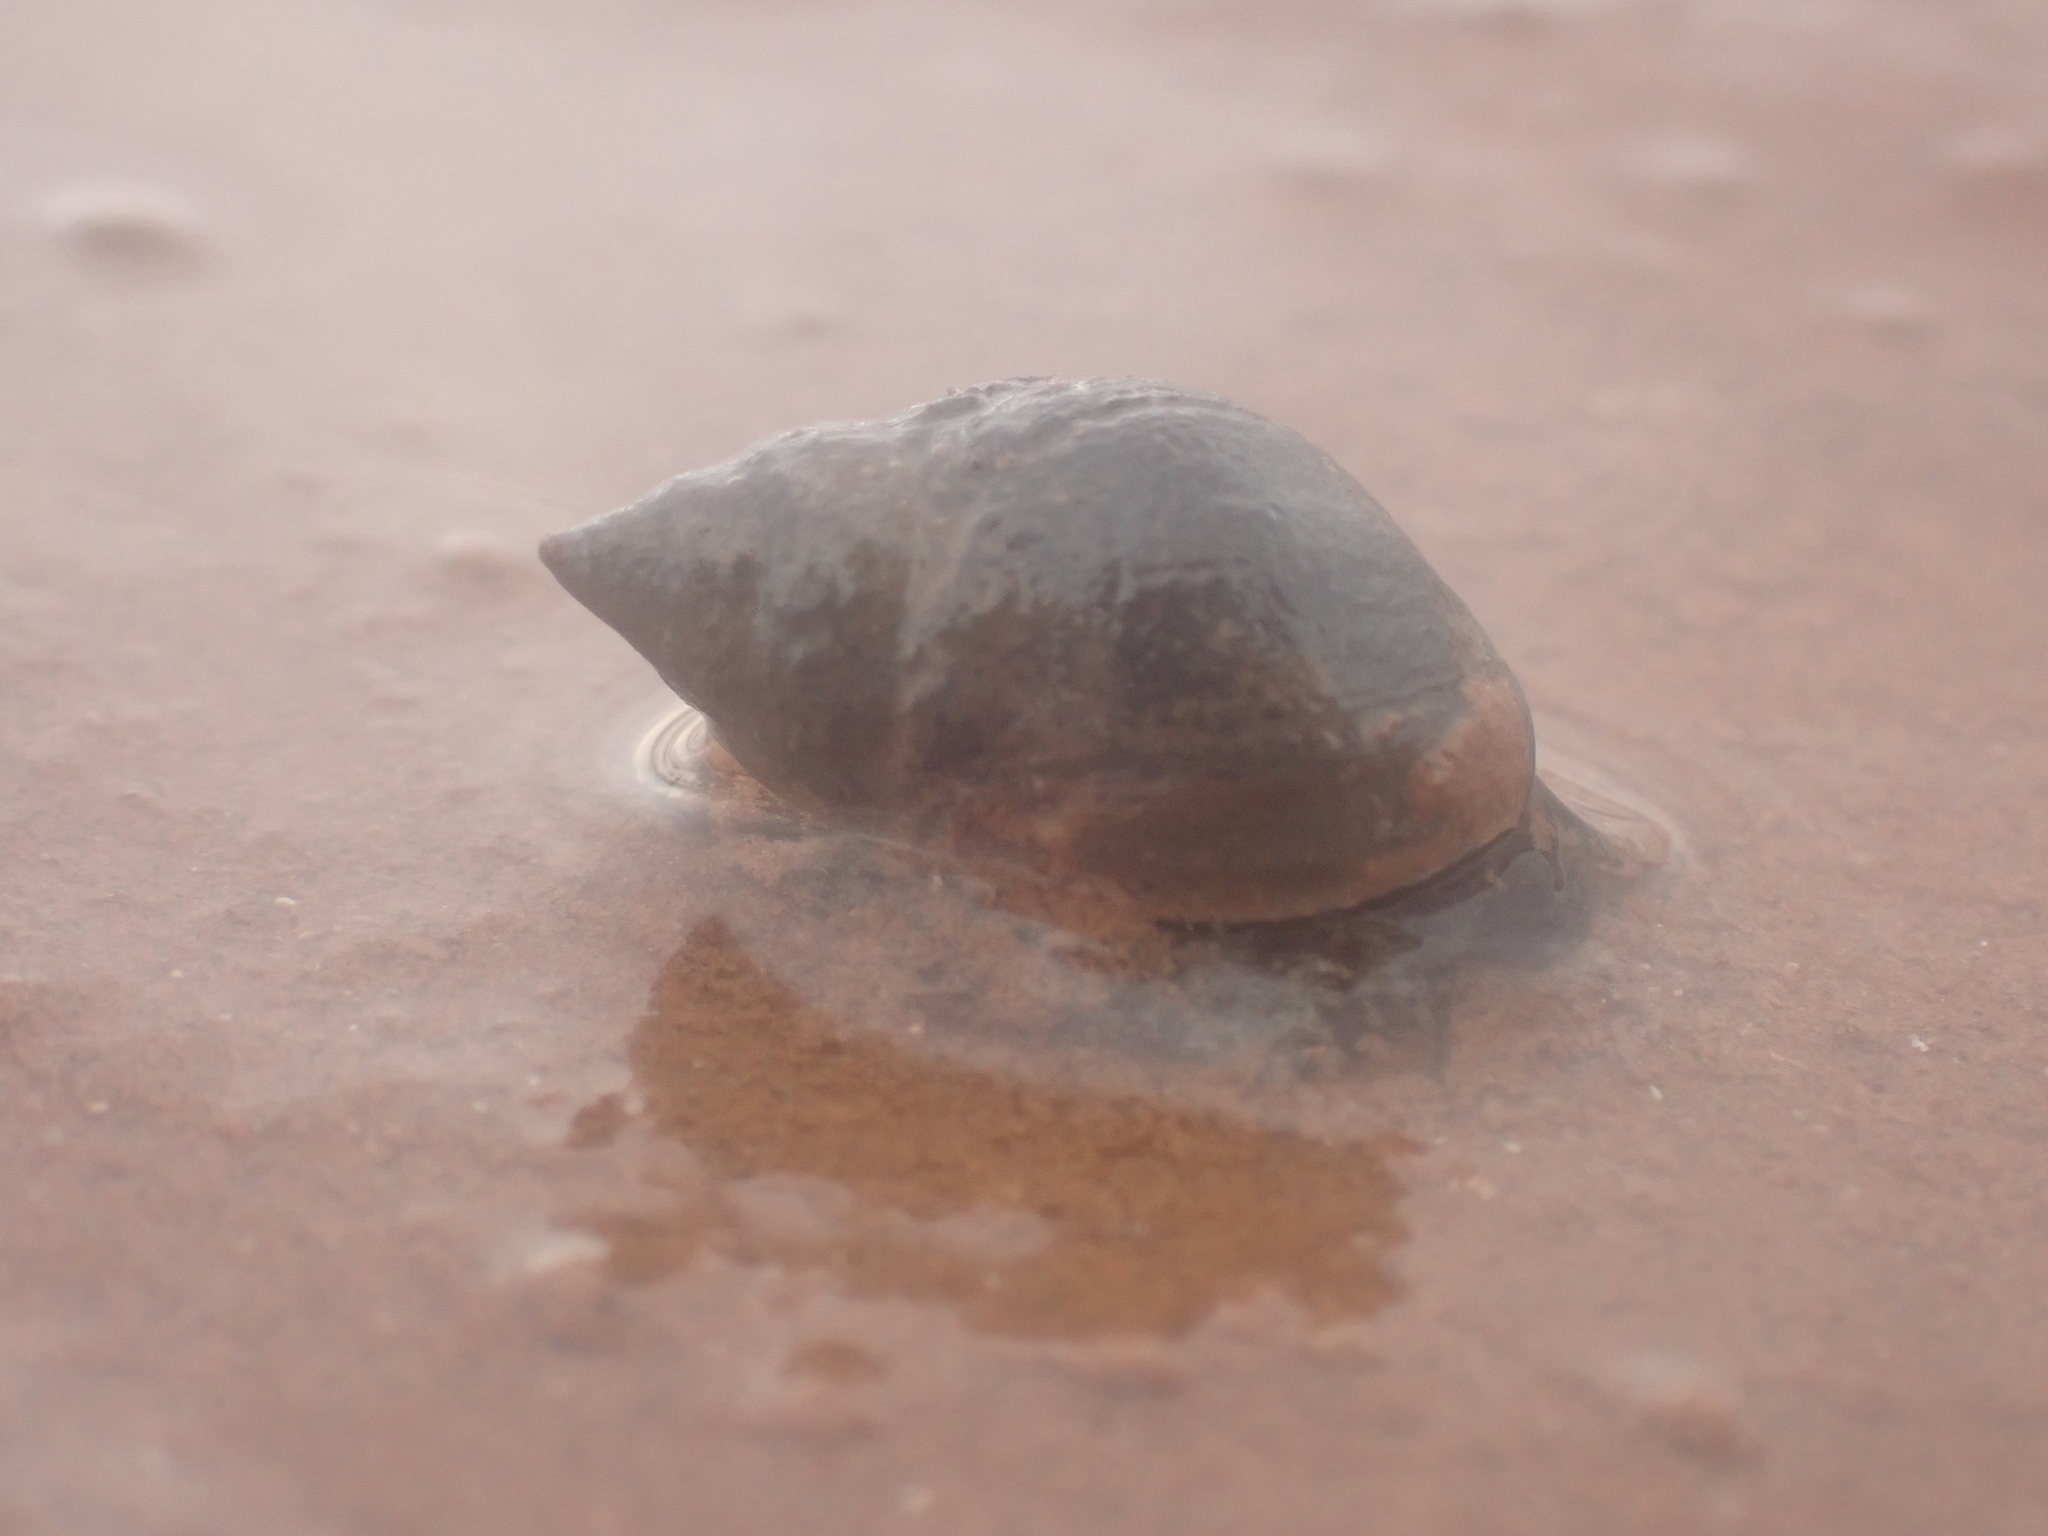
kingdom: Animalia
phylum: Mollusca
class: Gastropoda
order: Neogastropoda
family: Nassariidae
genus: Ilyanassa
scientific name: Ilyanassa obsoleta
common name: Eastern mudsnail
